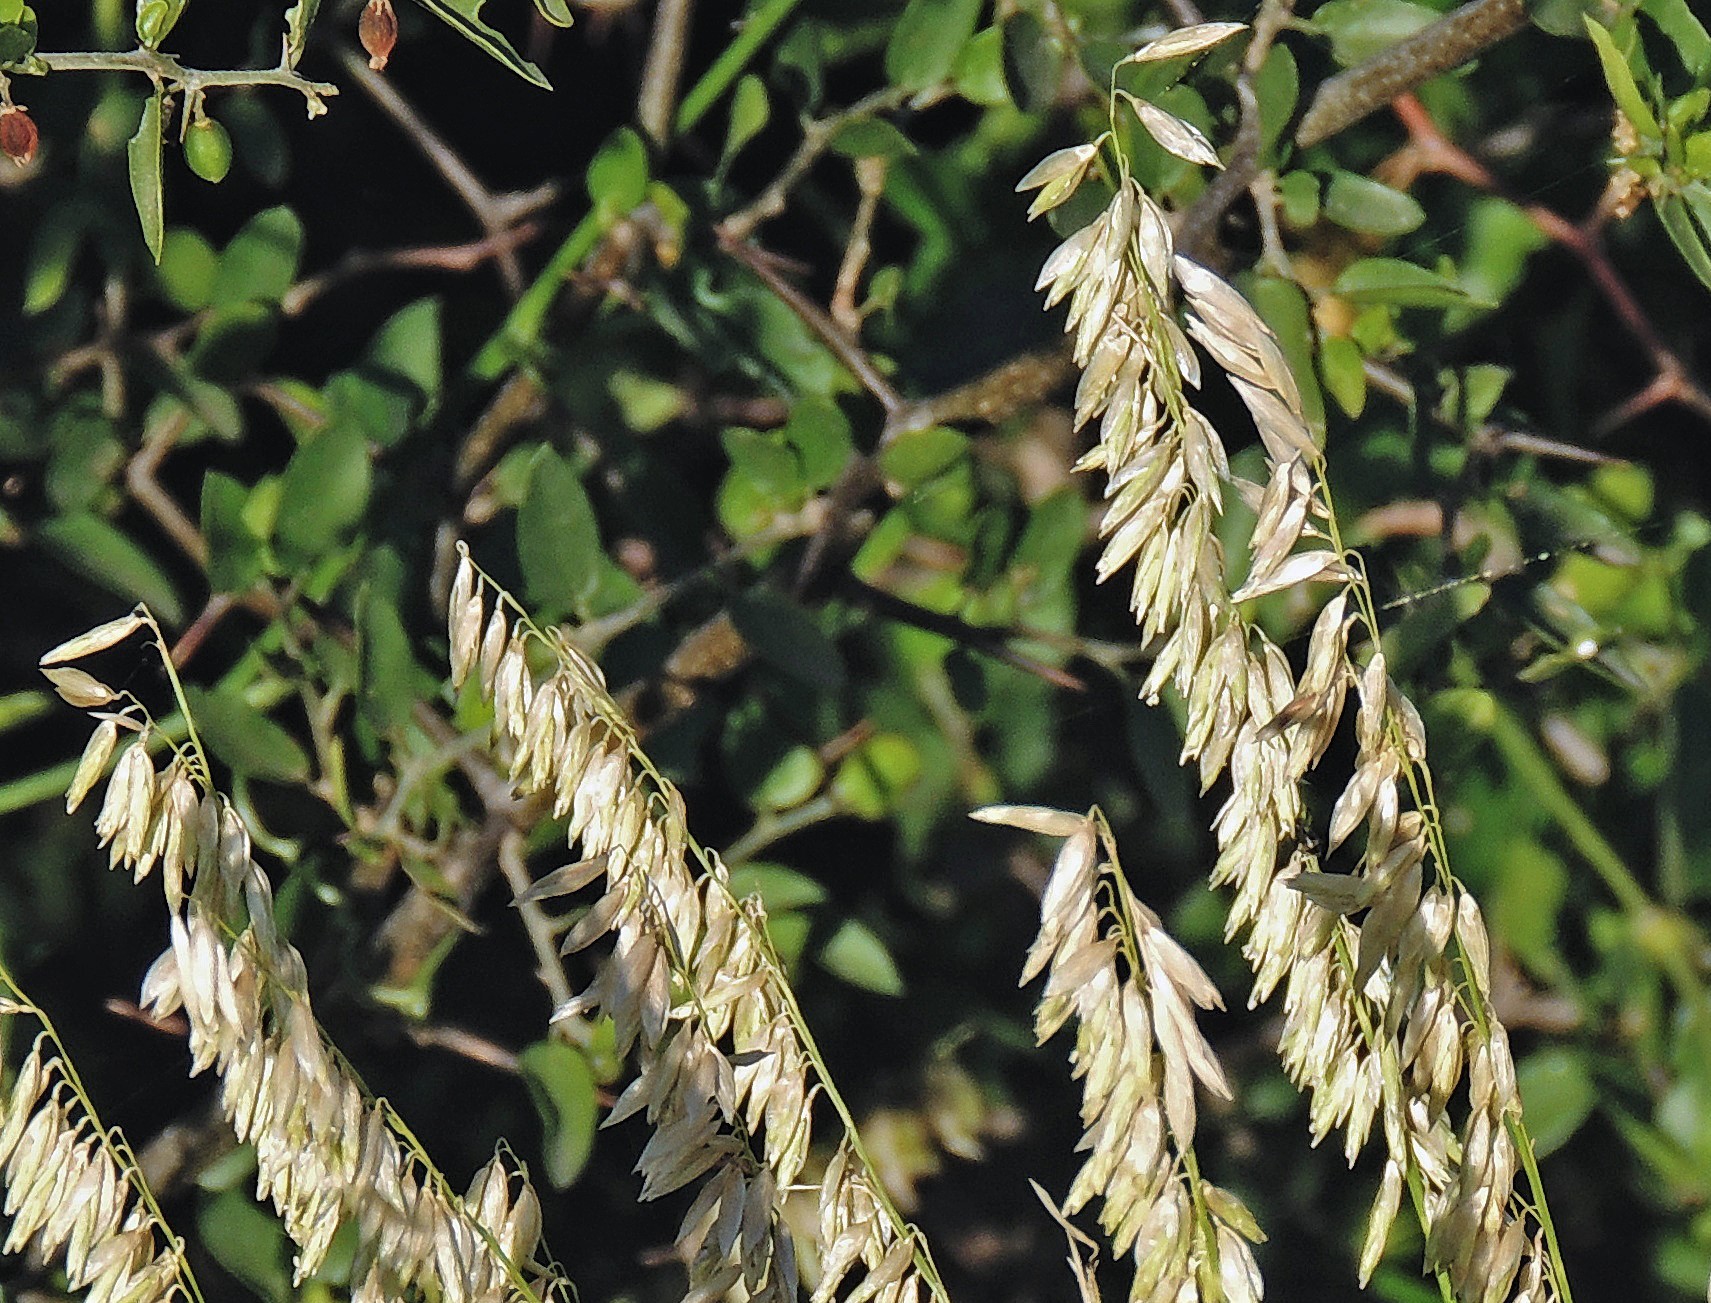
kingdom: Plantae
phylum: Tracheophyta
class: Liliopsida
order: Poales
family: Poaceae
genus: Melica
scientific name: Melica macra
